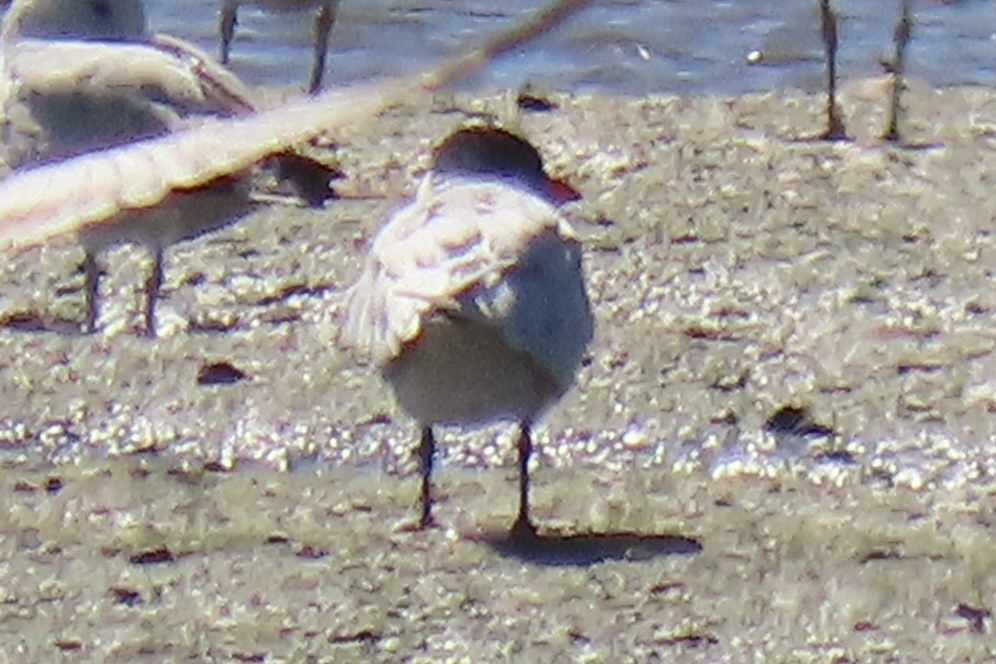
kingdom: Animalia
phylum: Chordata
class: Aves
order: Charadriiformes
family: Laridae
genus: Hydroprogne
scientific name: Hydroprogne caspia
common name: Caspian tern
